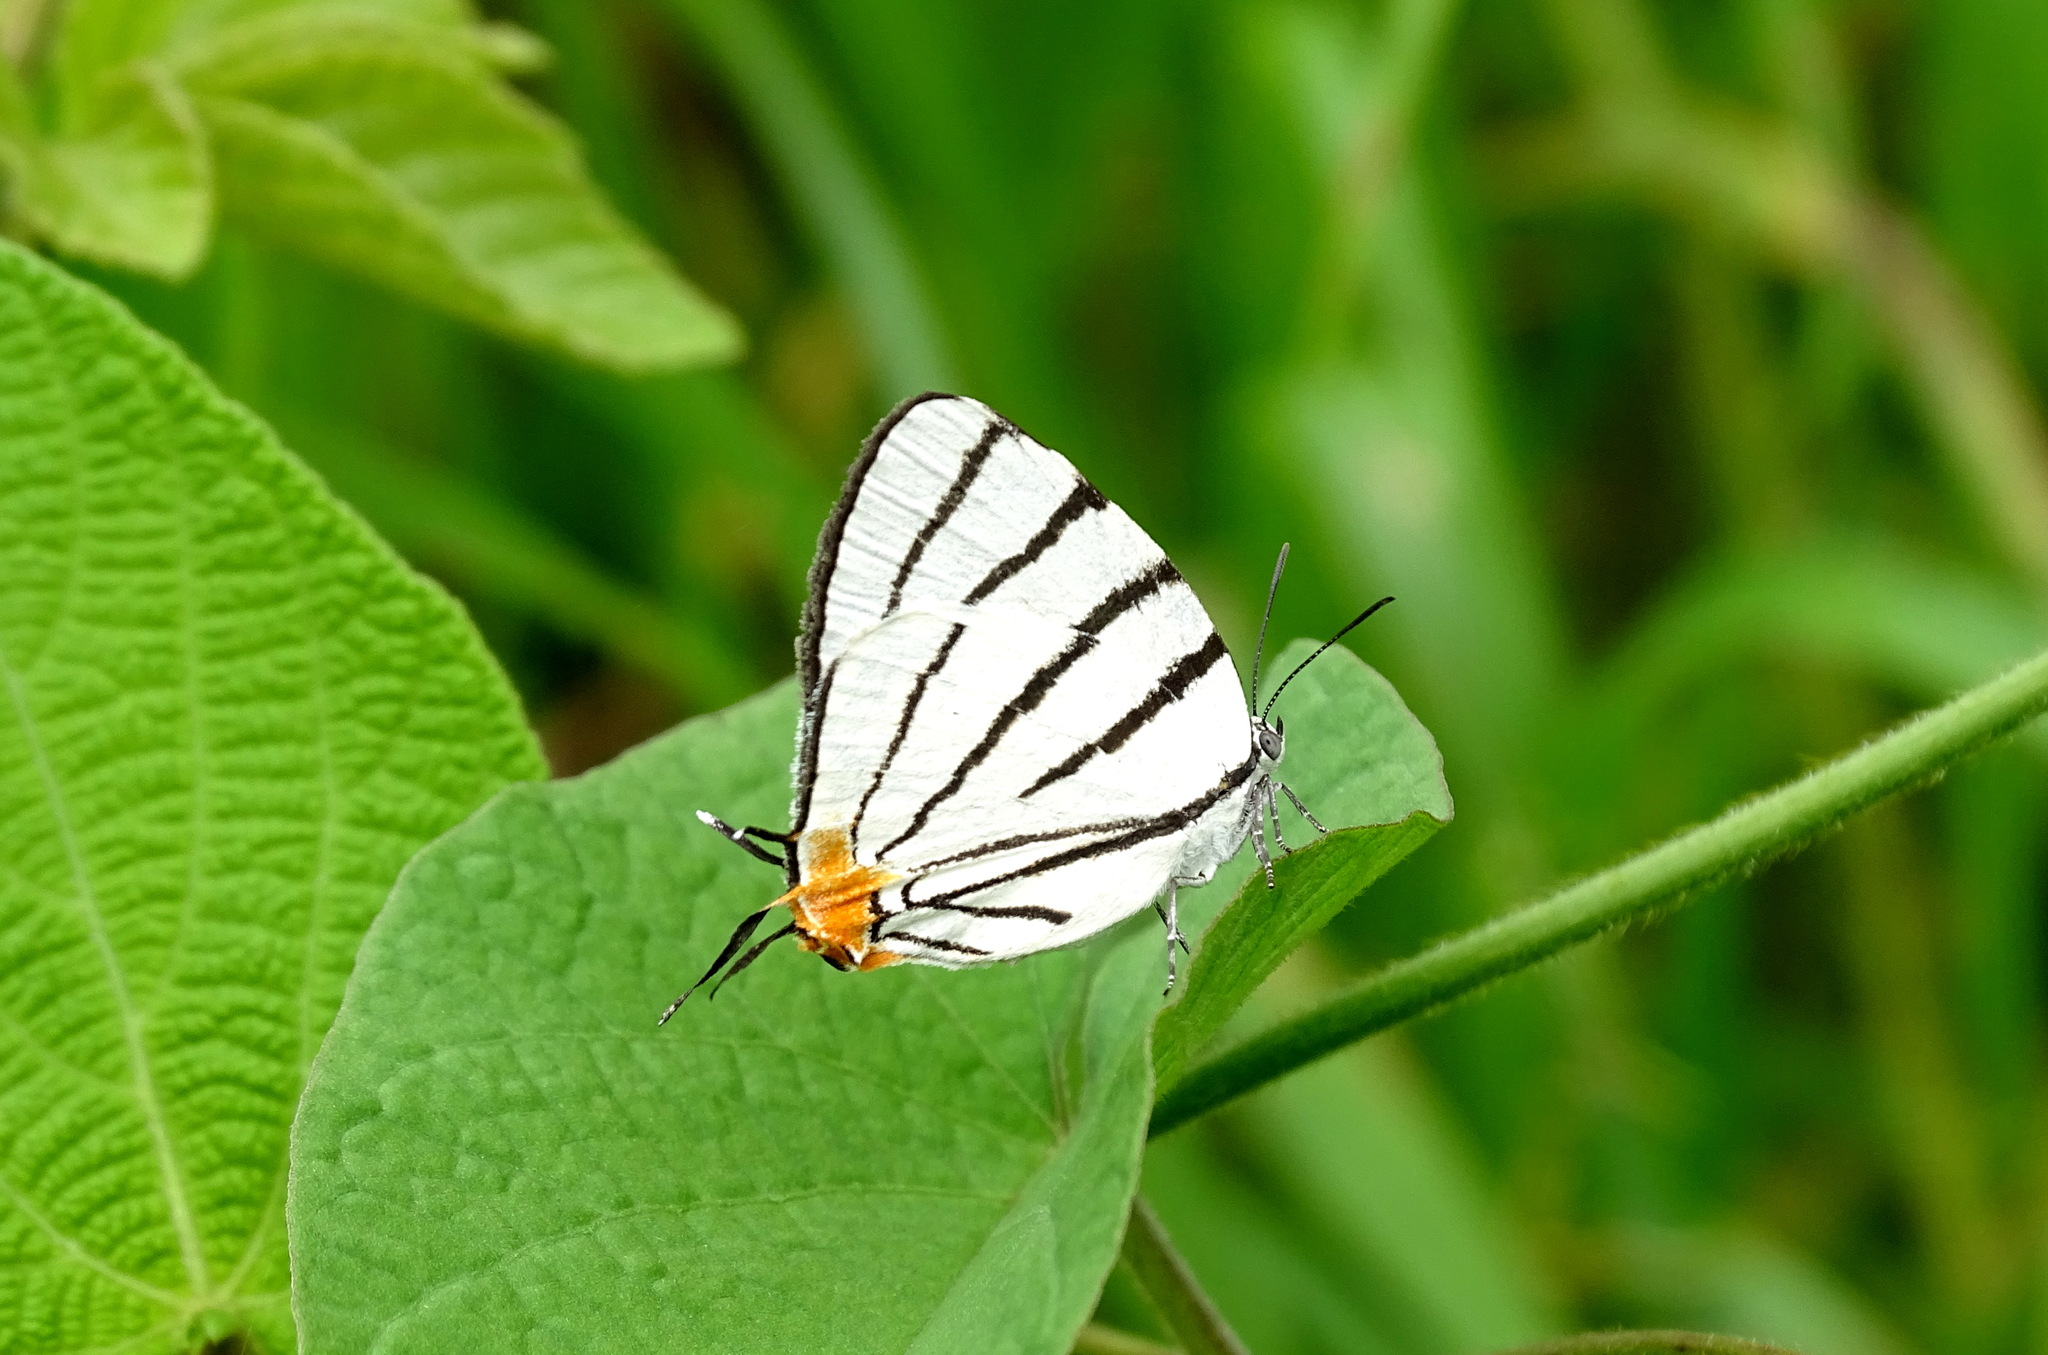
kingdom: Animalia
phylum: Arthropoda
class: Insecta
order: Lepidoptera
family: Lycaenidae
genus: Arawacus
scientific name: Arawacus sito
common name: Fine-lined hairstreak
